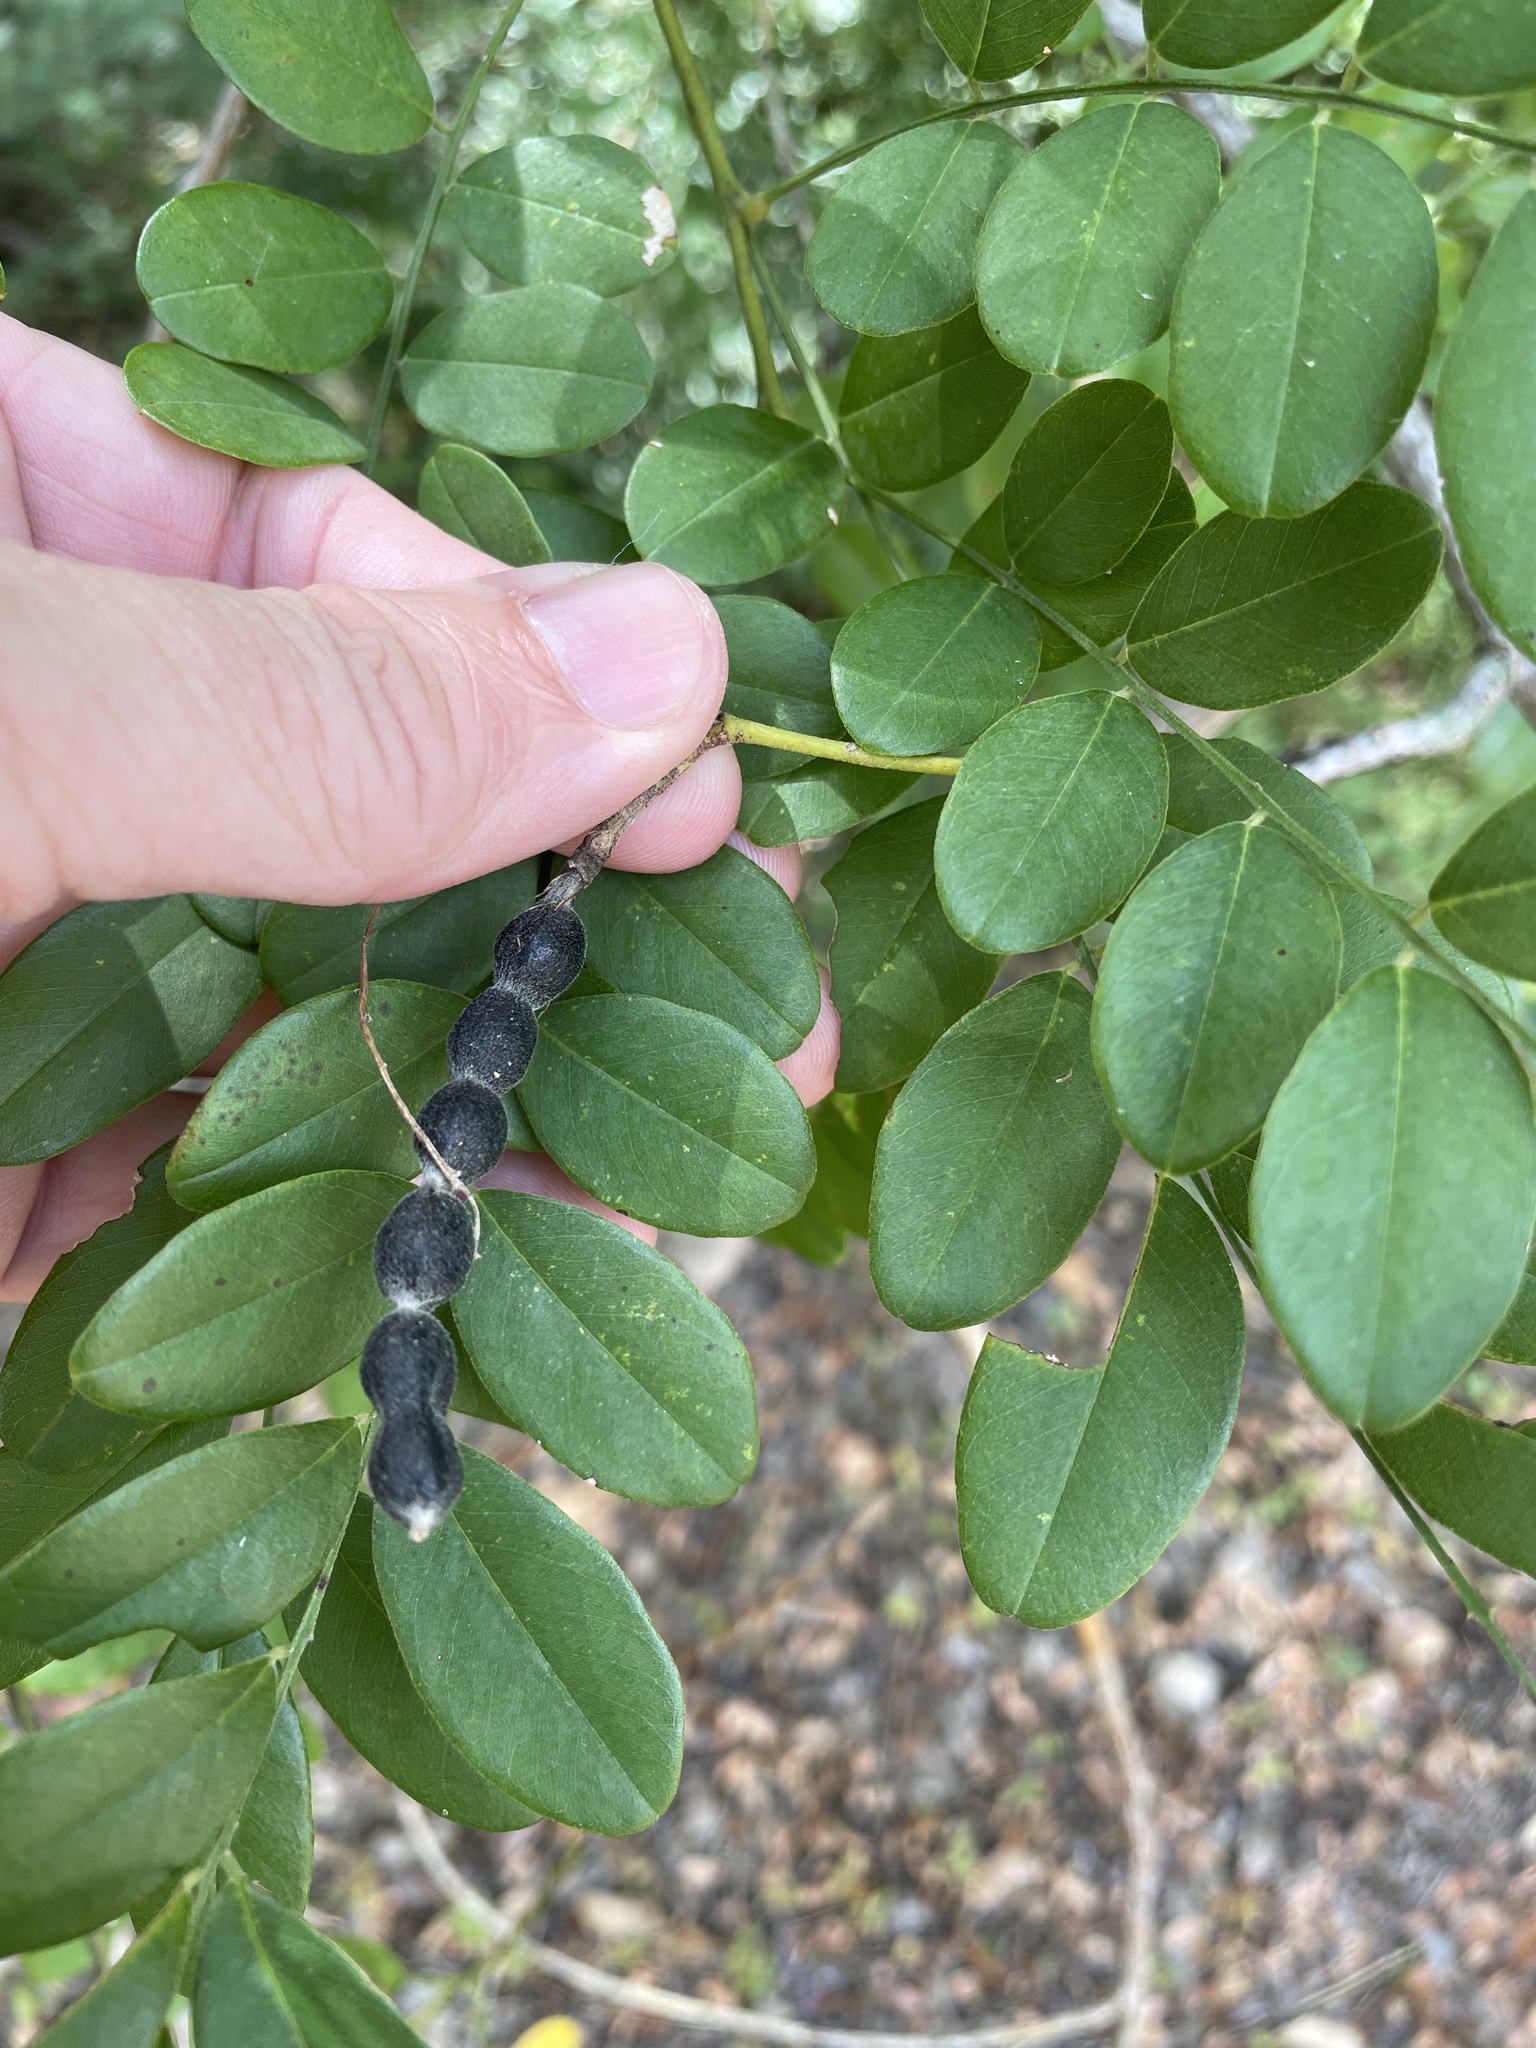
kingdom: Plantae
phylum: Tracheophyta
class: Magnoliopsida
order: Fabales
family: Fabaceae
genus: Styphnolobium
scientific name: Styphnolobium affine
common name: Texas sophora
